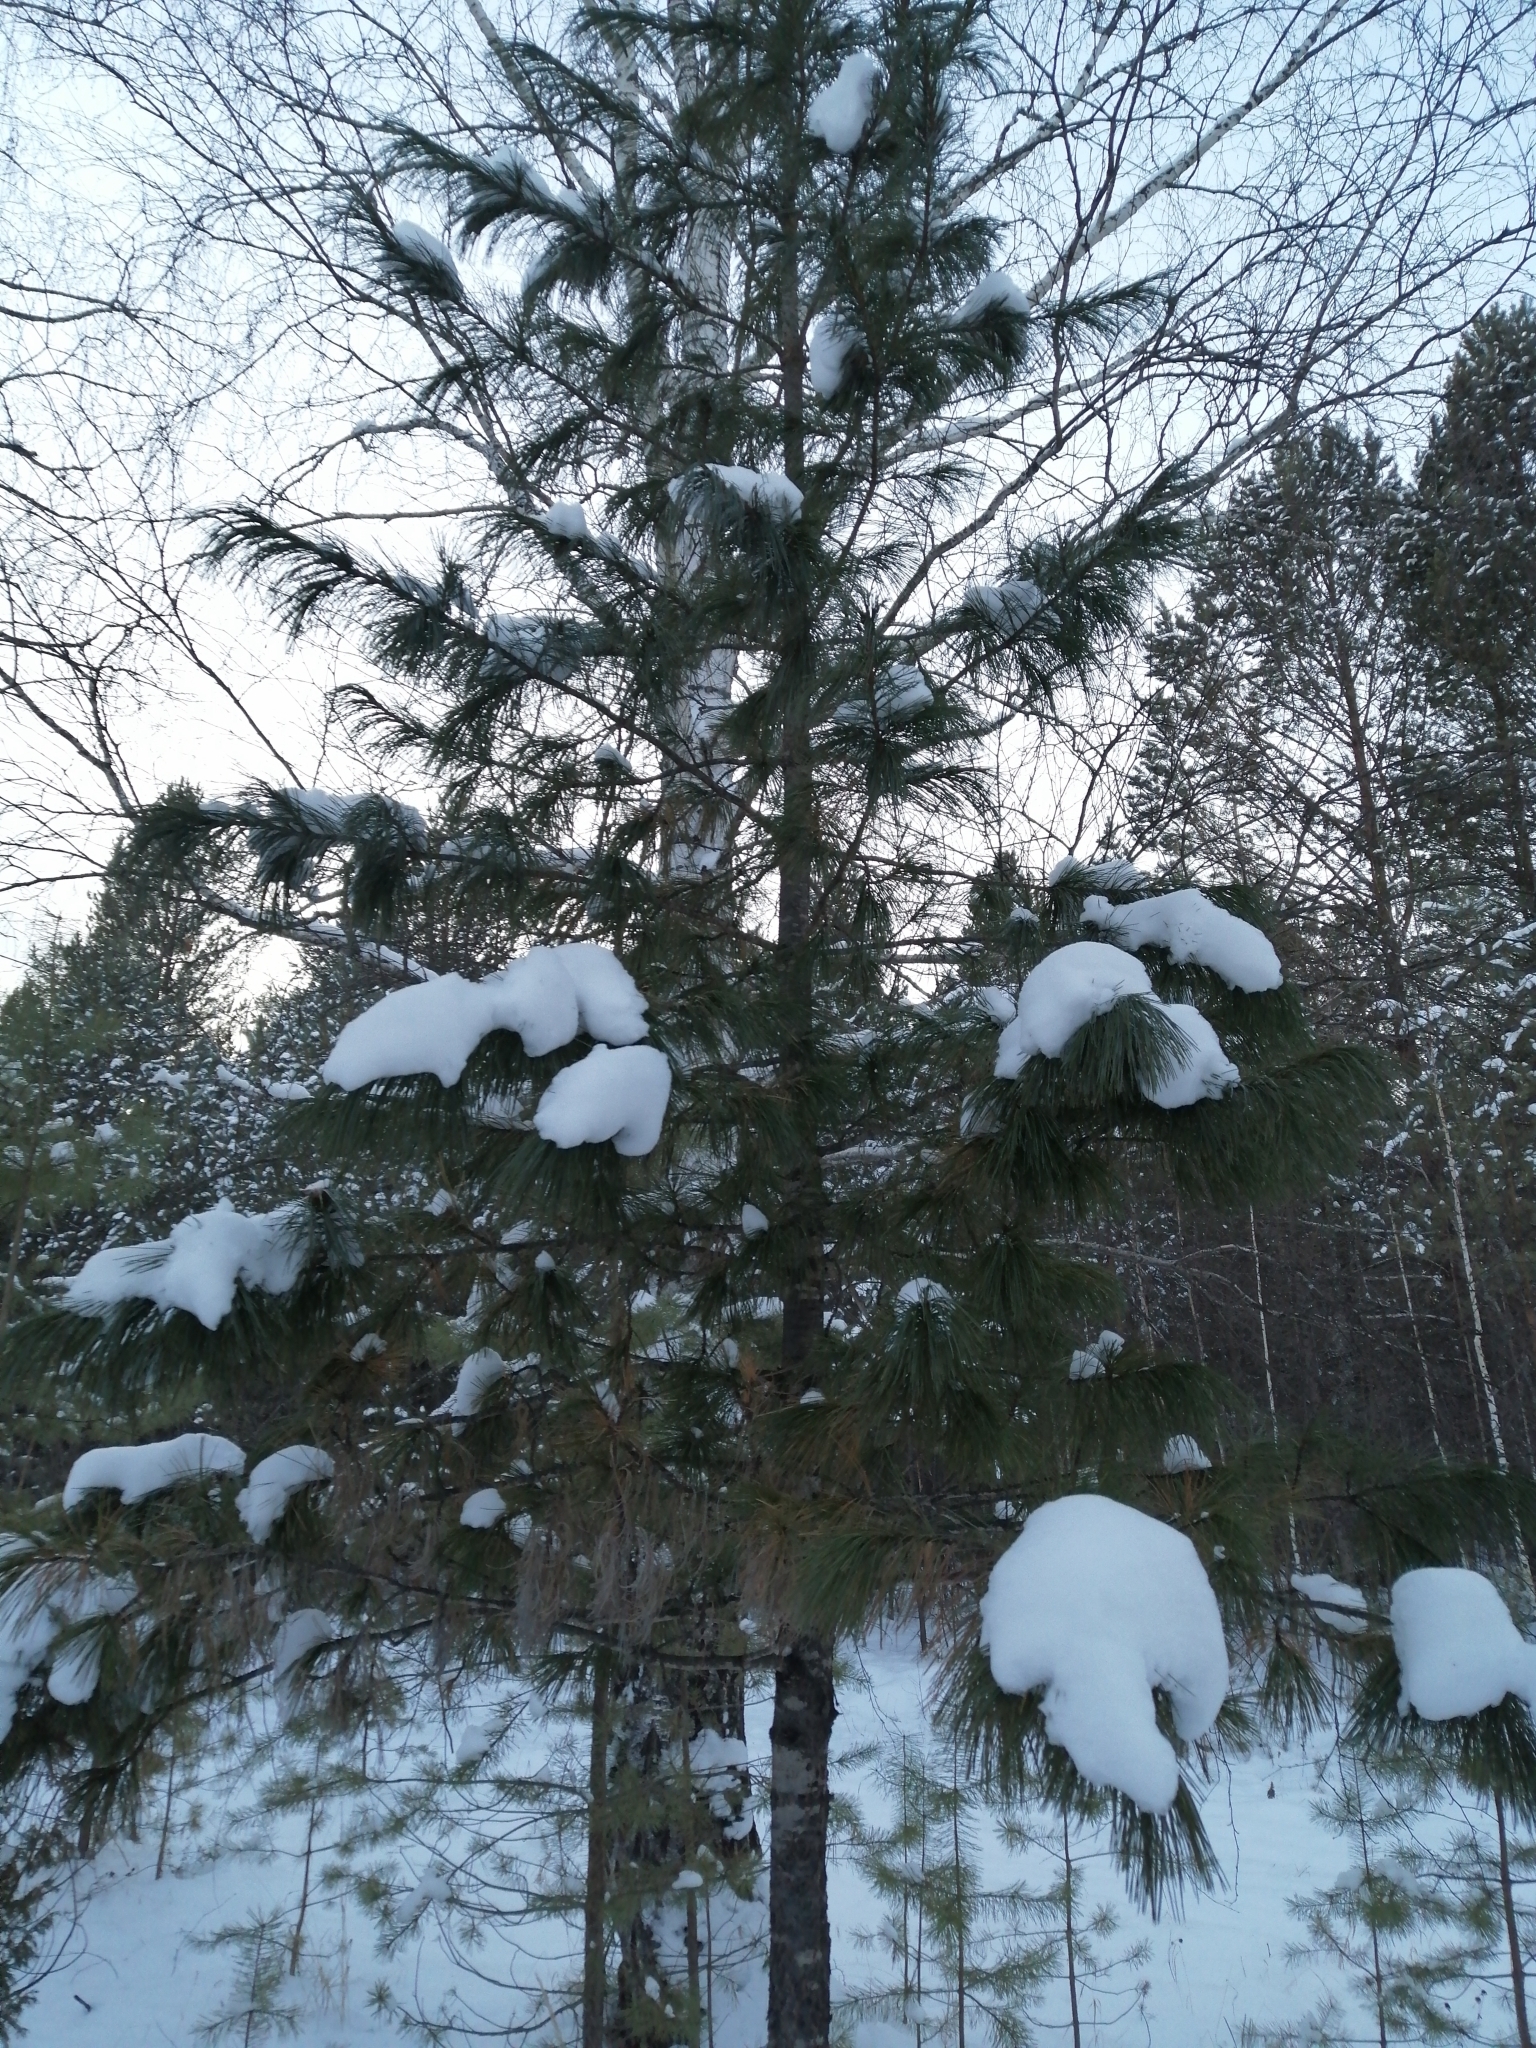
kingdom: Plantae
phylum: Tracheophyta
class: Pinopsida
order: Pinales
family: Pinaceae
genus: Pinus
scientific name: Pinus sibirica
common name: Siberian pine
